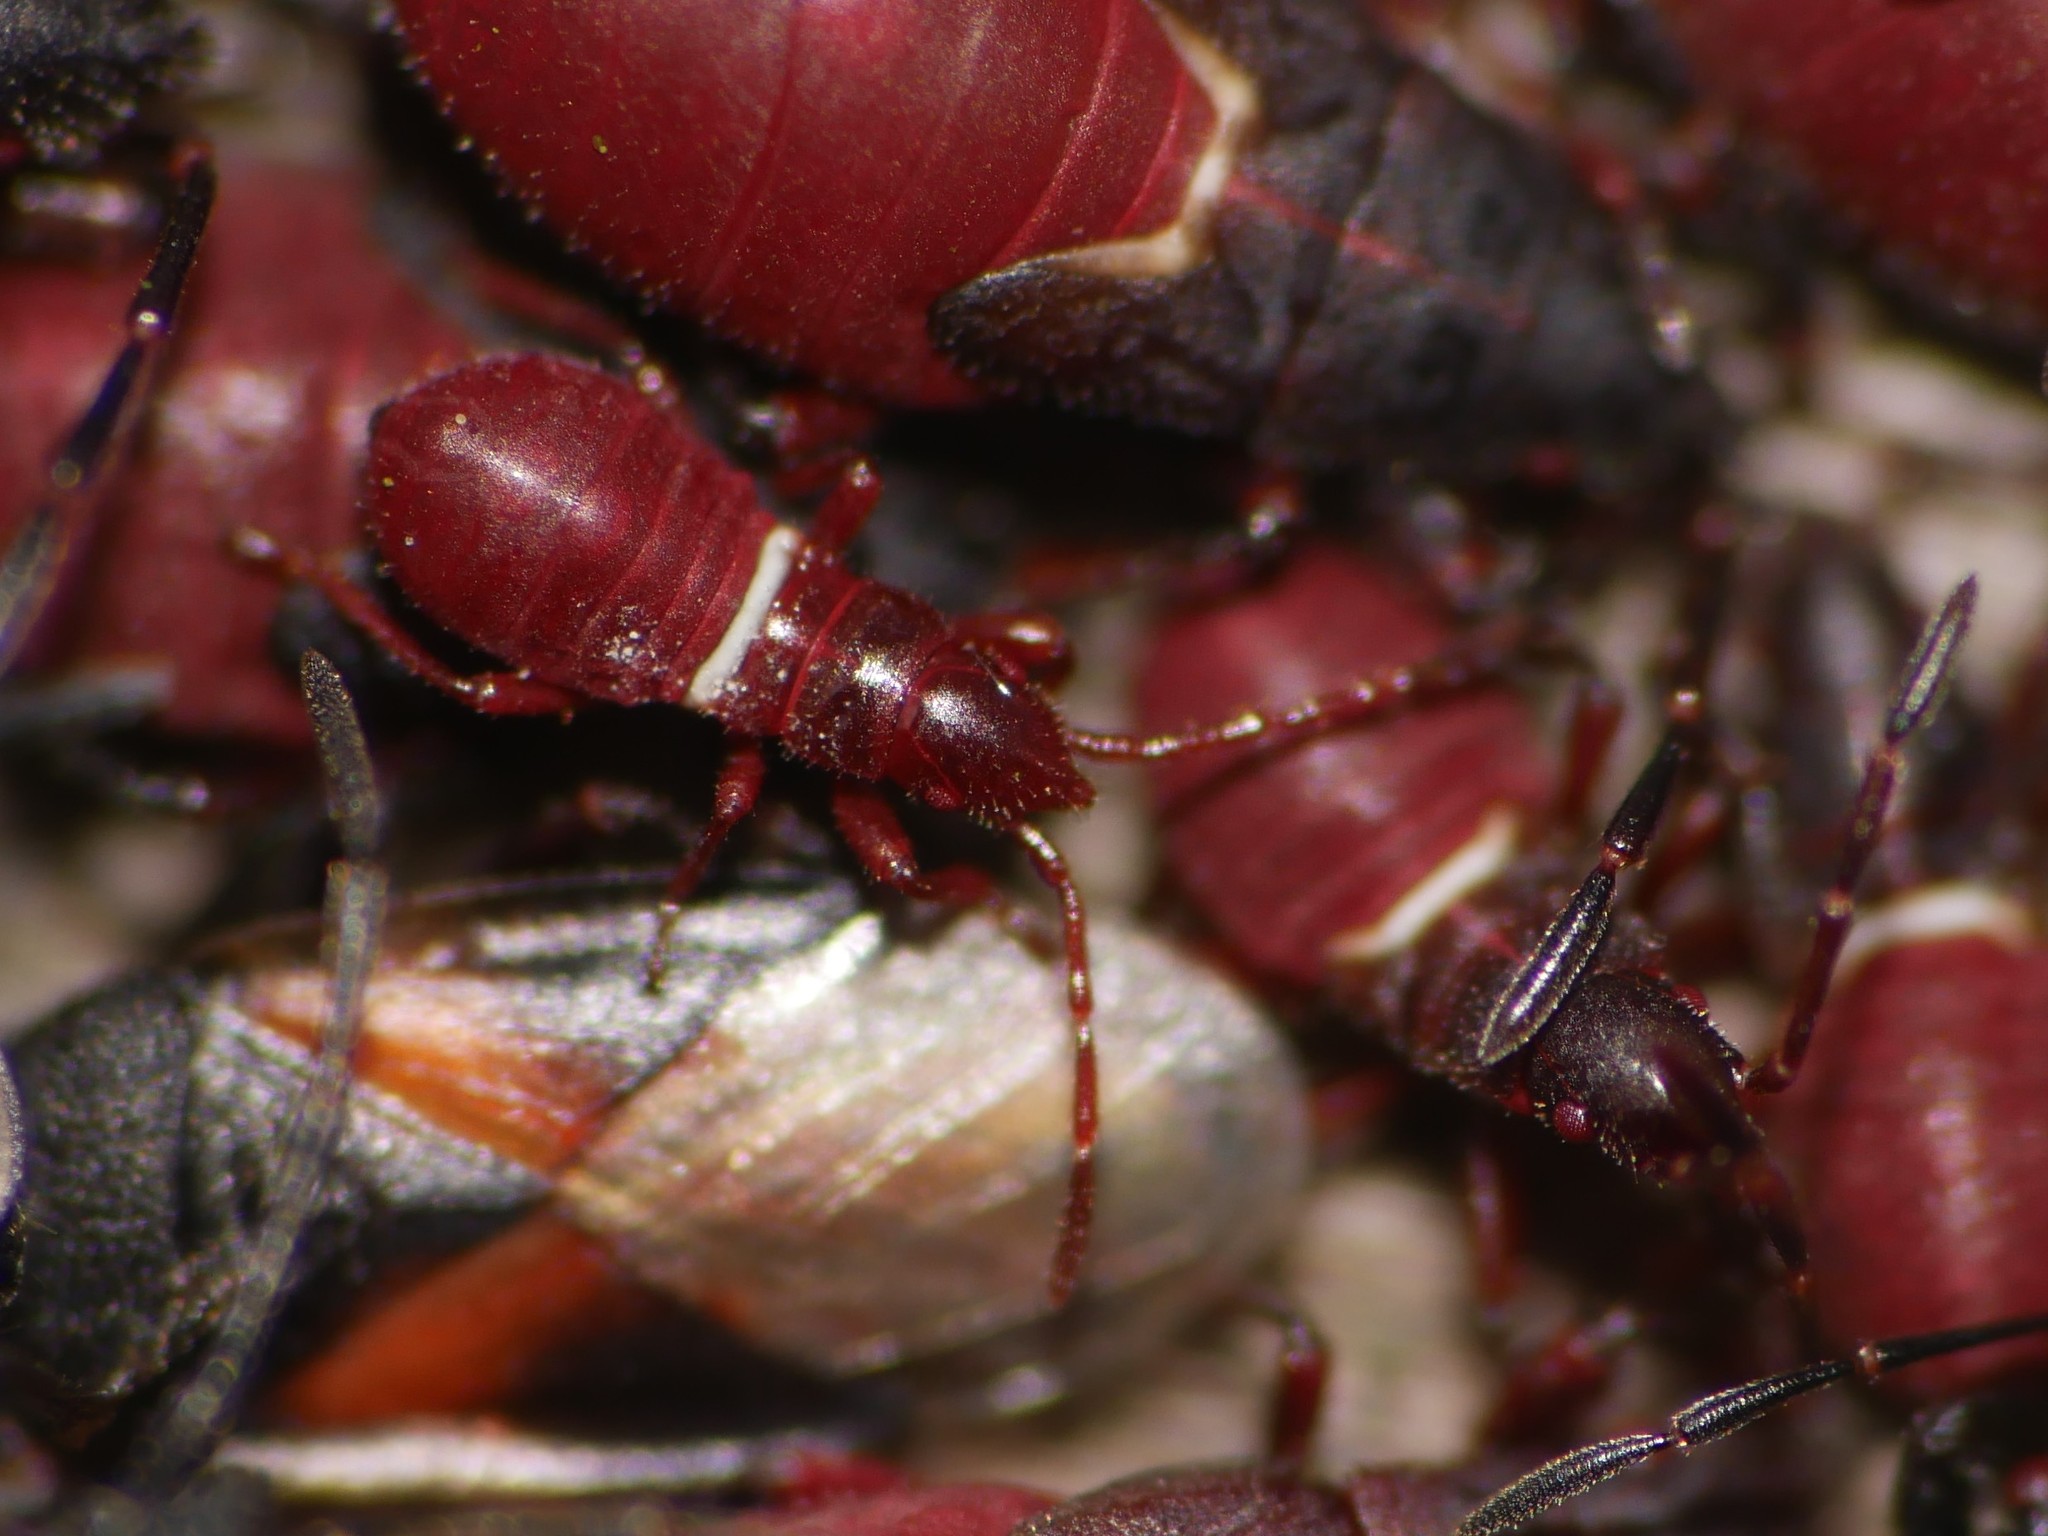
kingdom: Animalia
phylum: Arthropoda
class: Insecta
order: Hemiptera
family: Oxycarenidae
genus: Oxycarenus
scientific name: Oxycarenus lavaterae
